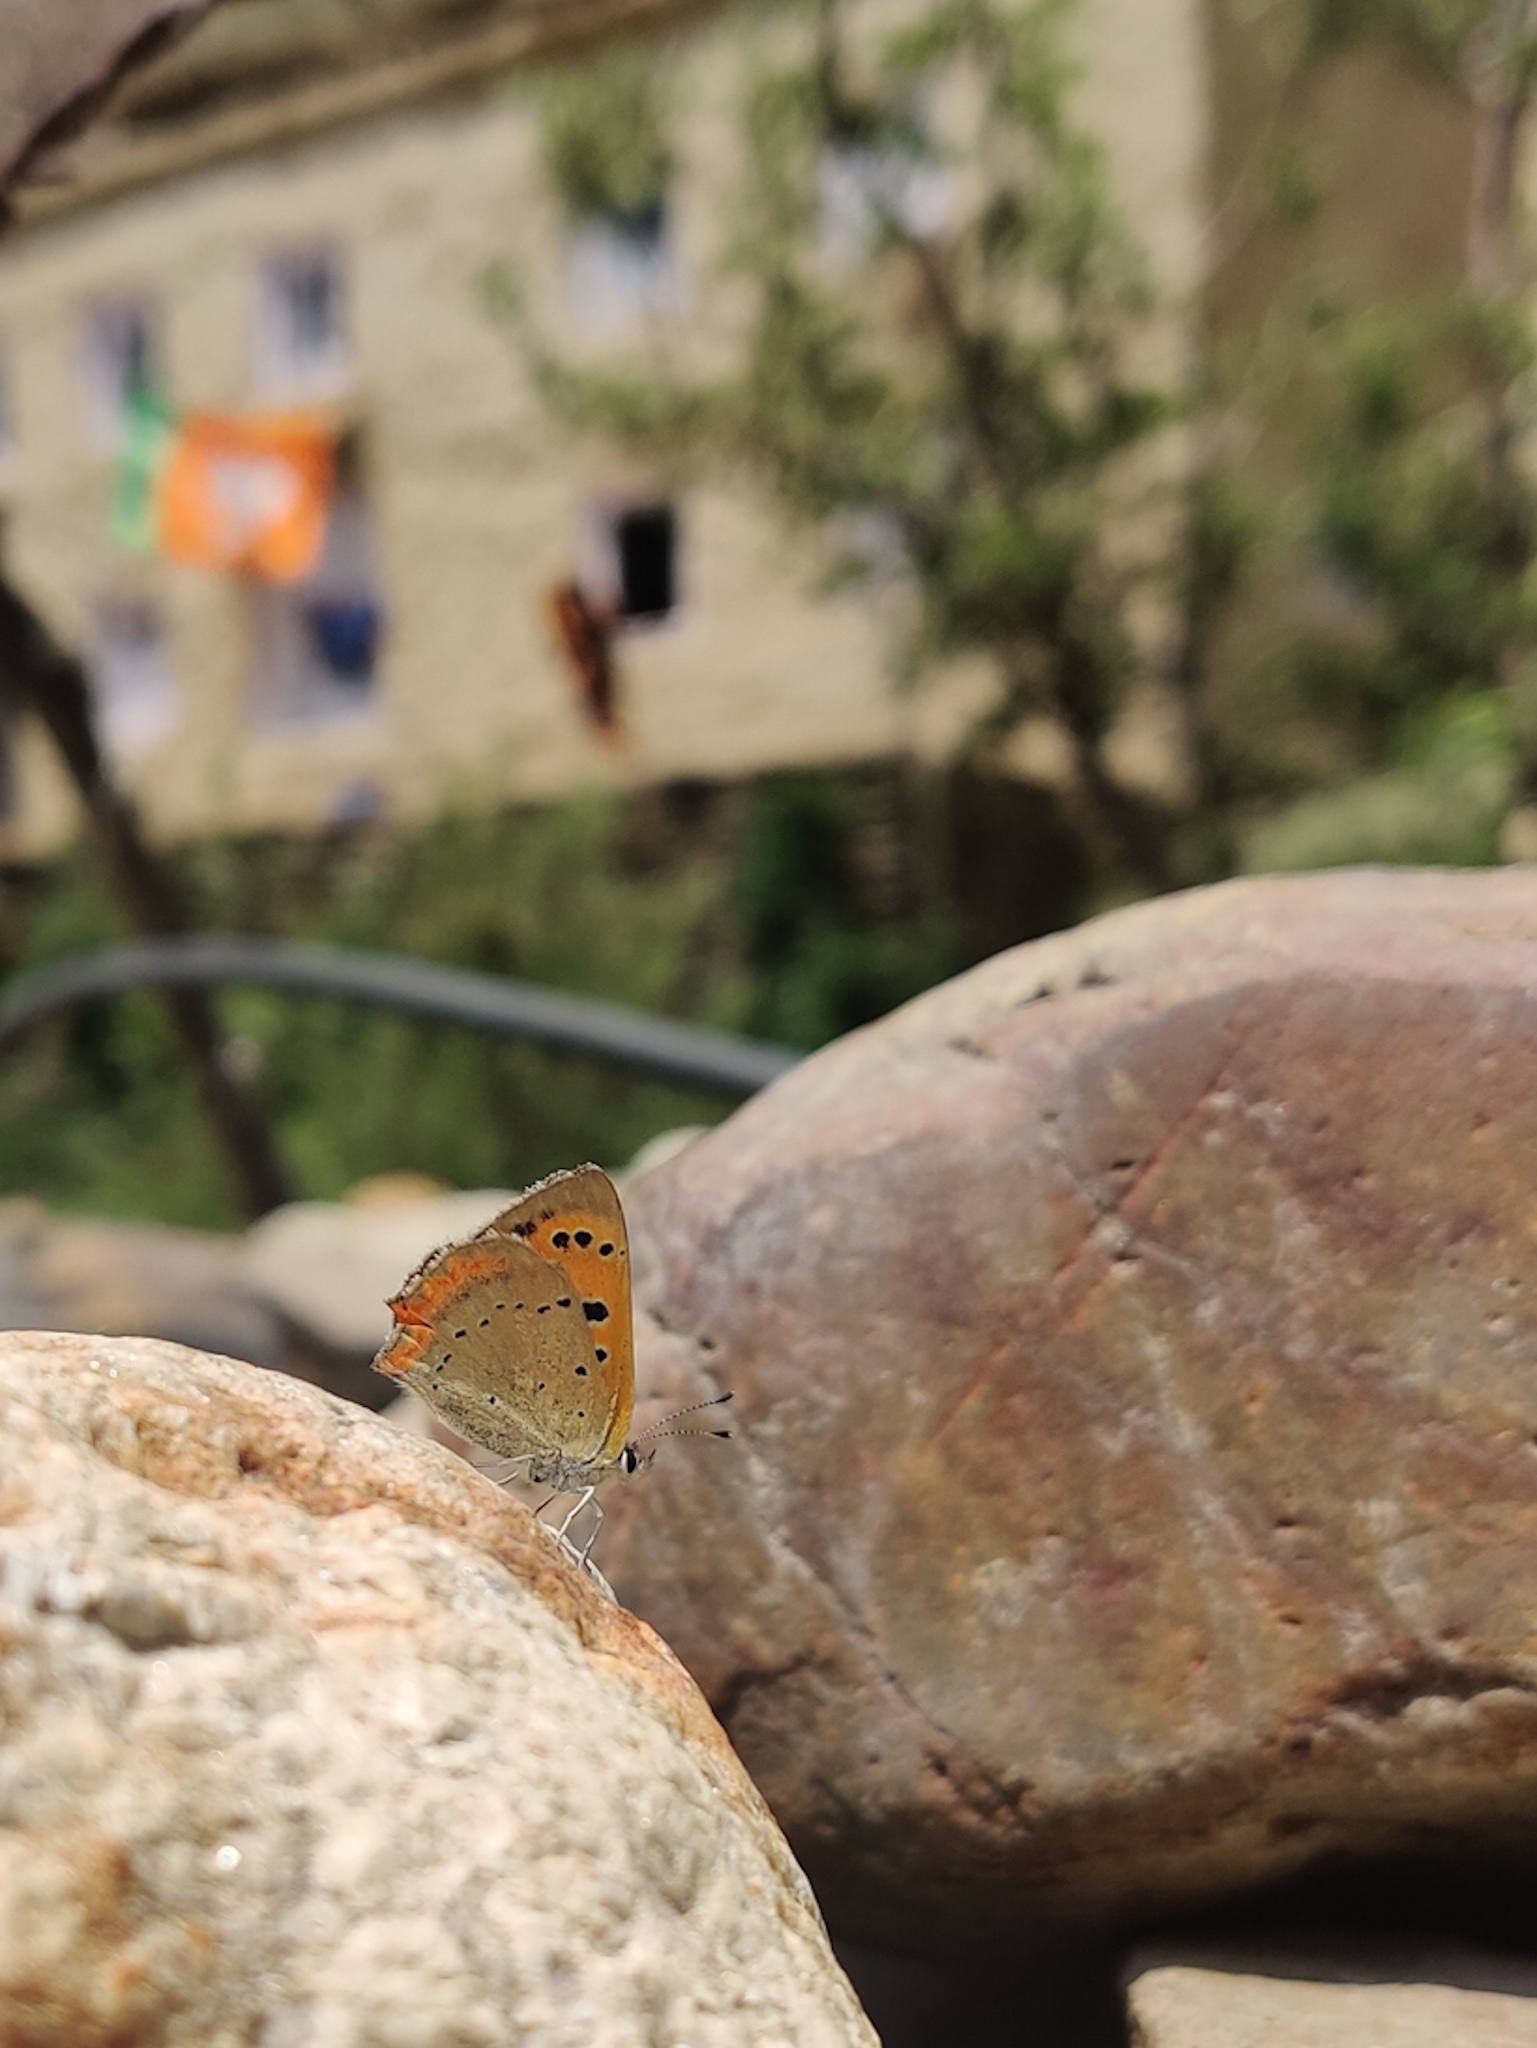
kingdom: Animalia
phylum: Arthropoda
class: Insecta
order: Lepidoptera
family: Lycaenidae
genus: Lycaena
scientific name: Lycaena phlaeas
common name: Small copper
